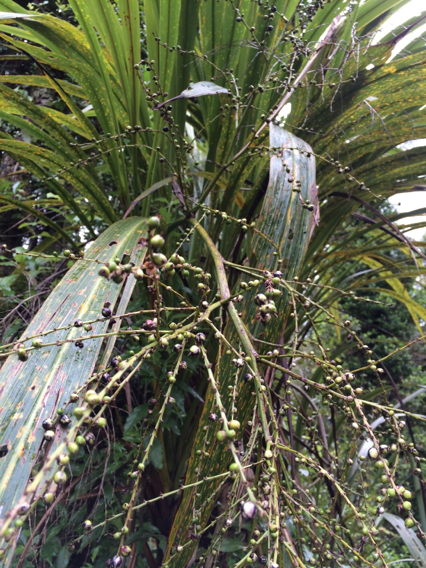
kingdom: Plantae
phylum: Tracheophyta
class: Liliopsida
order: Asparagales
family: Asparagaceae
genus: Cordyline
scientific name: Cordyline banksii
